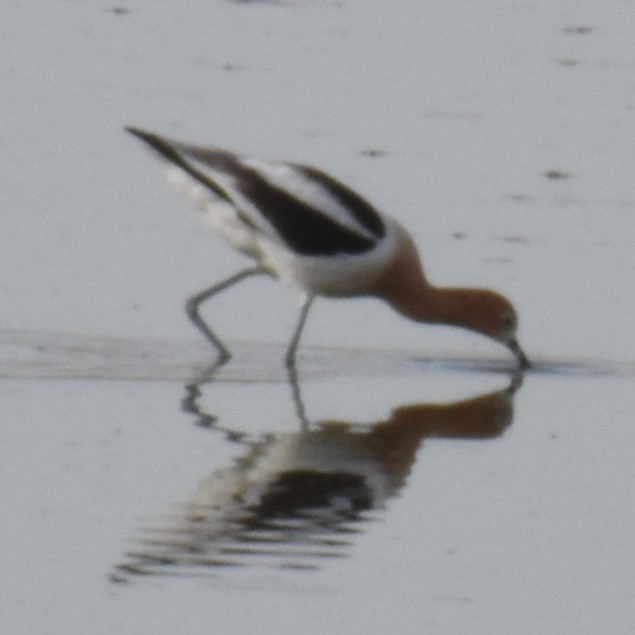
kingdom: Animalia
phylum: Chordata
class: Aves
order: Charadriiformes
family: Recurvirostridae
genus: Recurvirostra
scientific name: Recurvirostra americana
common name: American avocet
